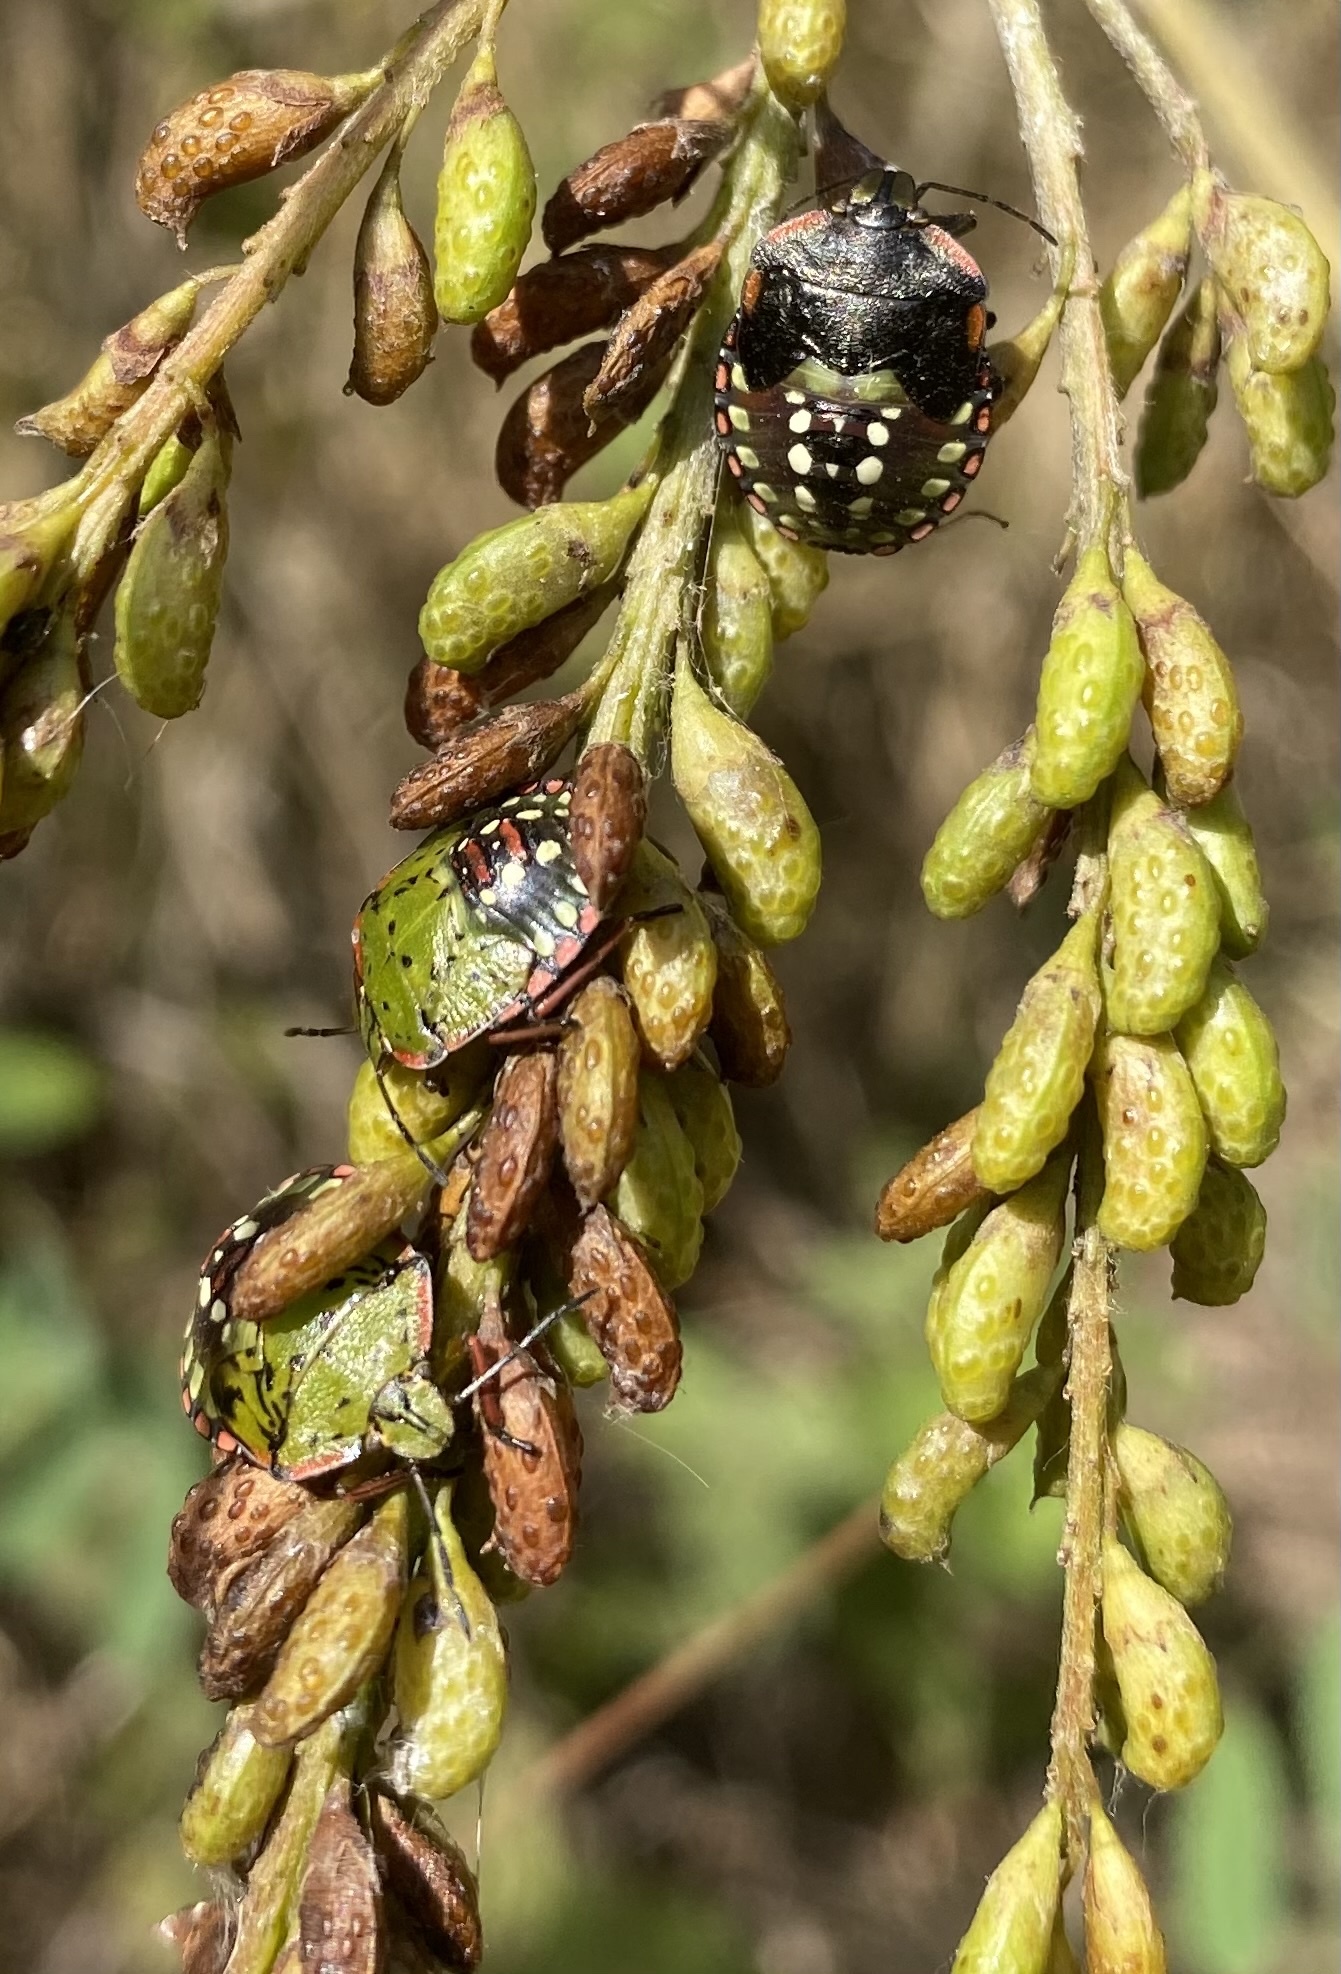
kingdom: Animalia
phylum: Arthropoda
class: Insecta
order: Hemiptera
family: Pentatomidae
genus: Nezara
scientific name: Nezara viridula
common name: Southern green stink bug
